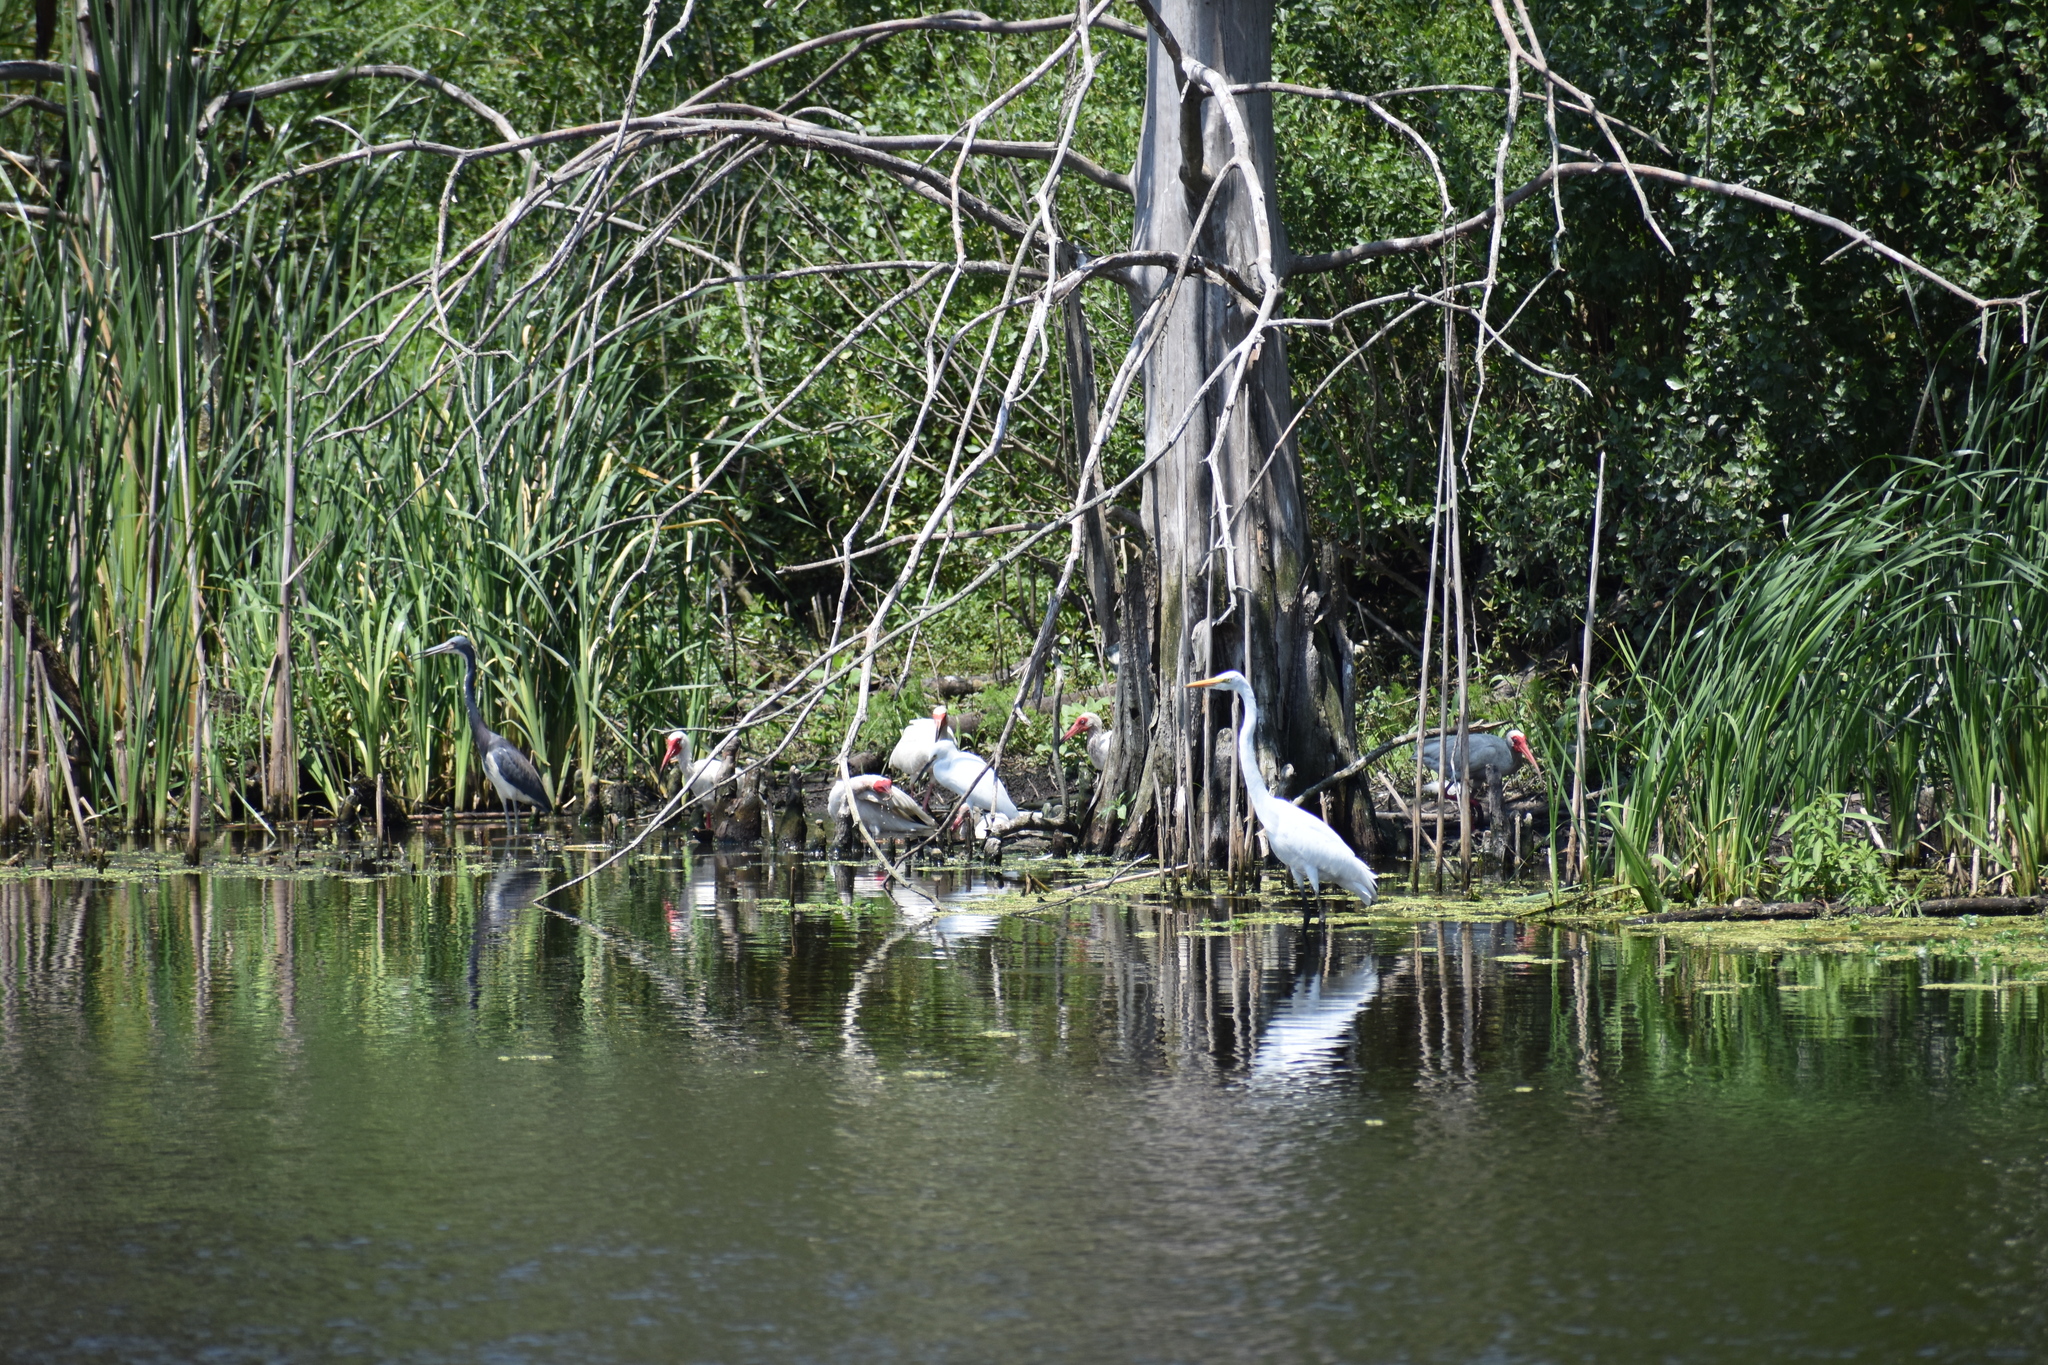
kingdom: Animalia
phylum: Chordata
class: Aves
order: Pelecaniformes
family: Ardeidae
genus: Egretta
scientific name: Egretta tricolor
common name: Tricolored heron
